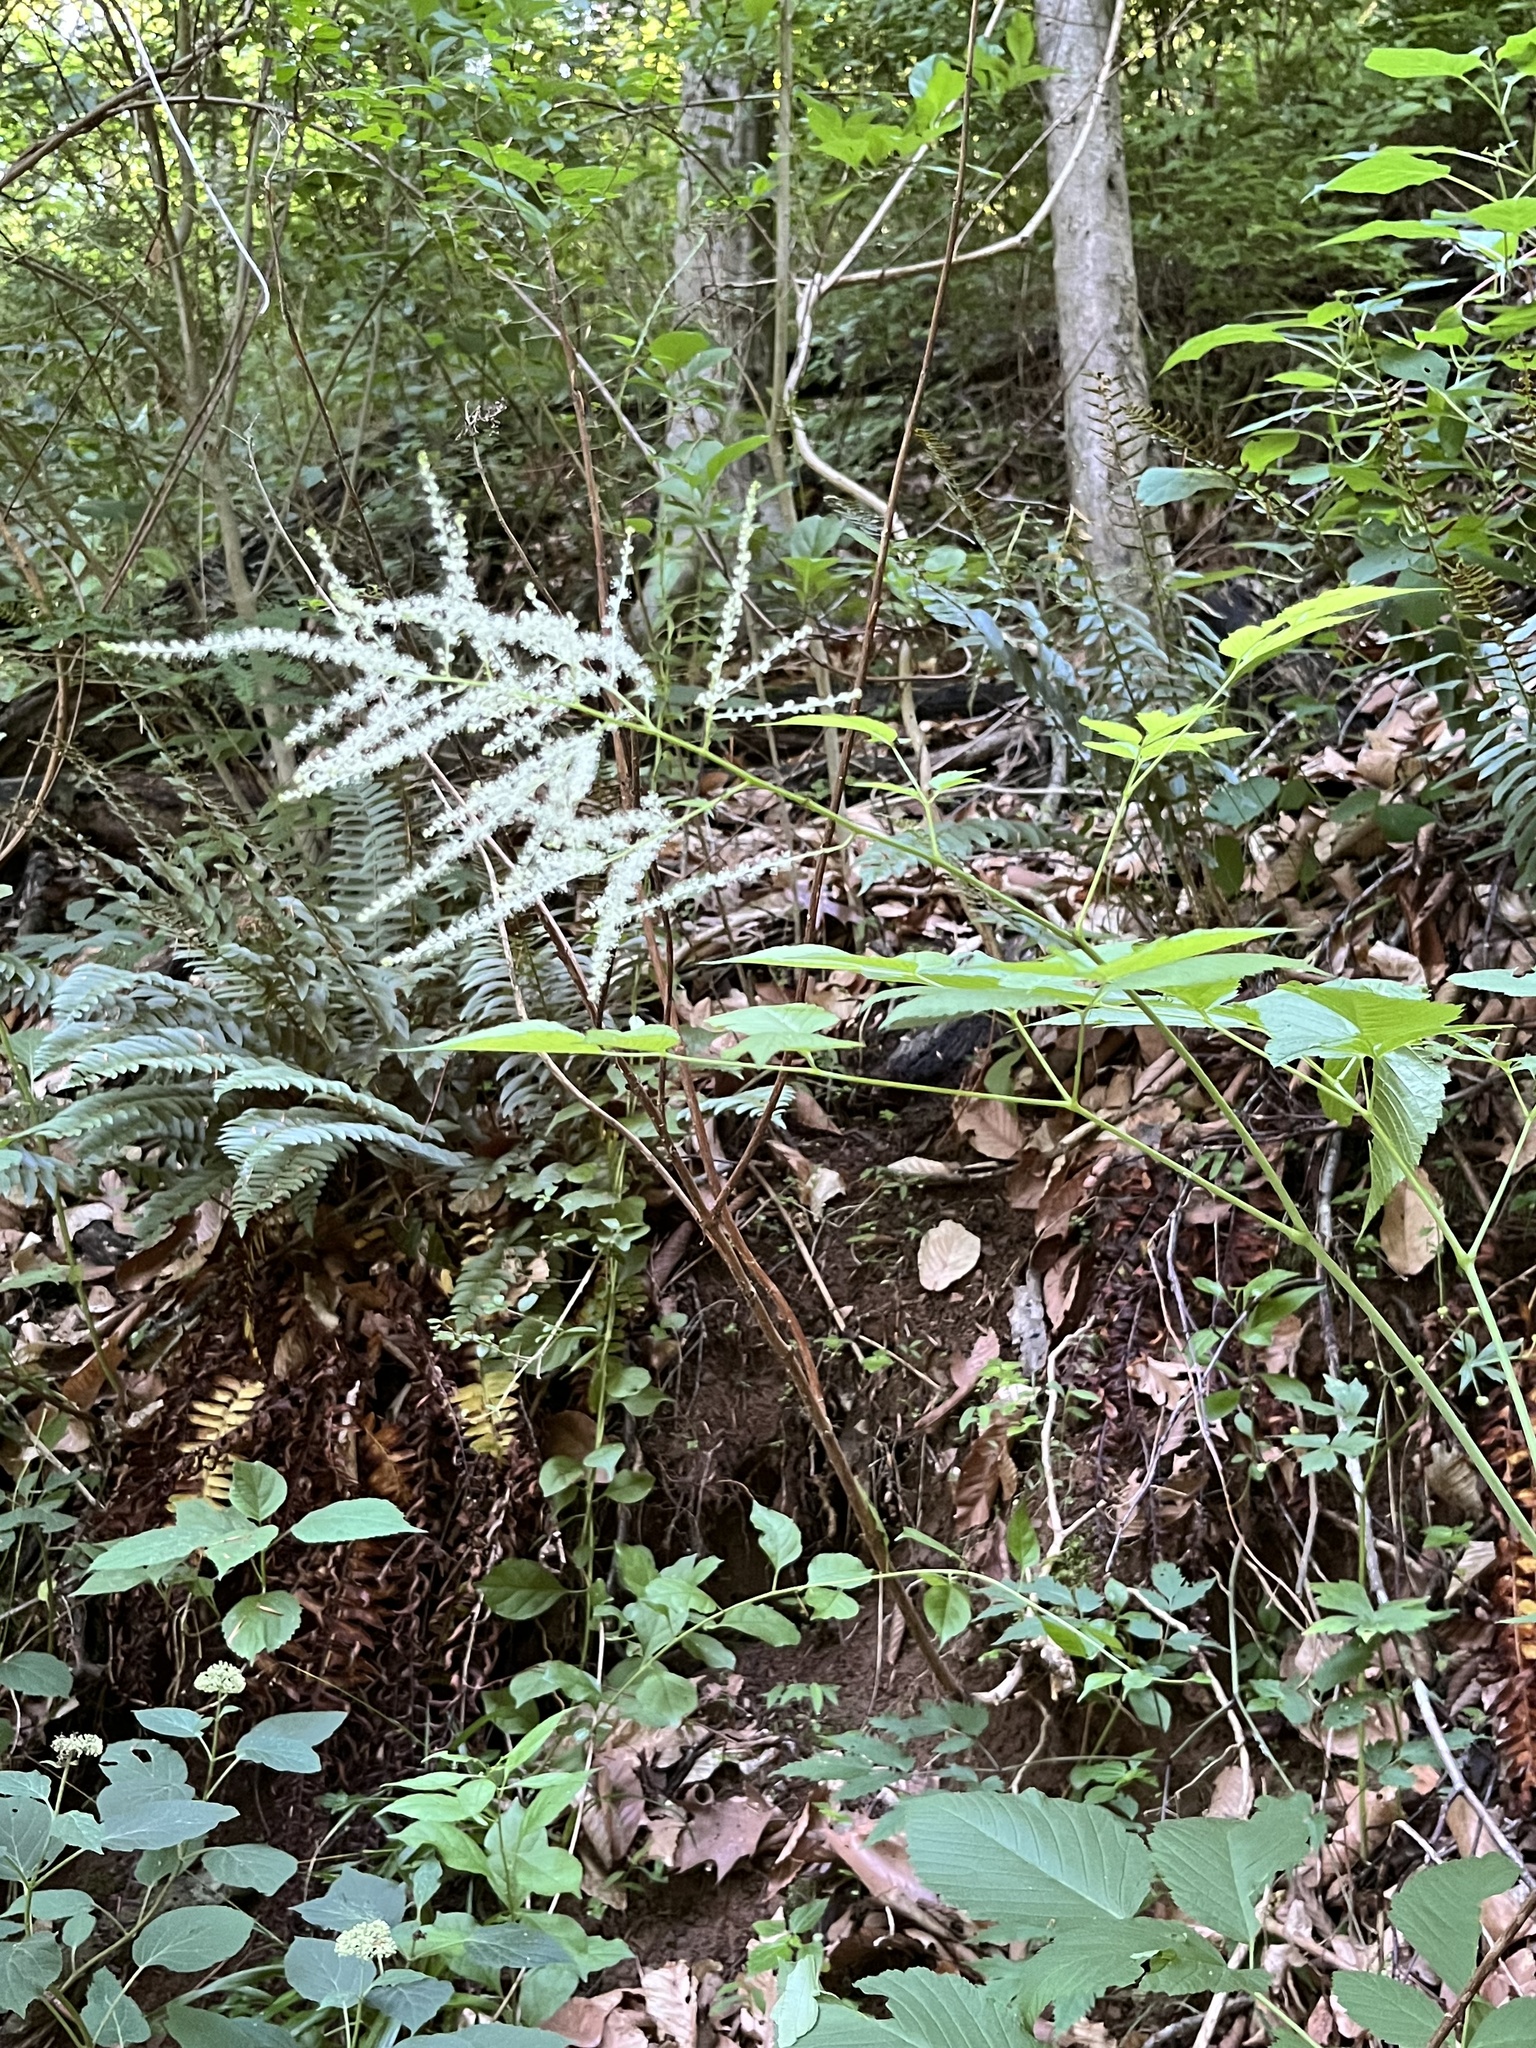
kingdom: Plantae
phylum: Tracheophyta
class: Magnoliopsida
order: Rosales
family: Rosaceae
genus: Aruncus
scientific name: Aruncus dioicus
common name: Buck's-beard
